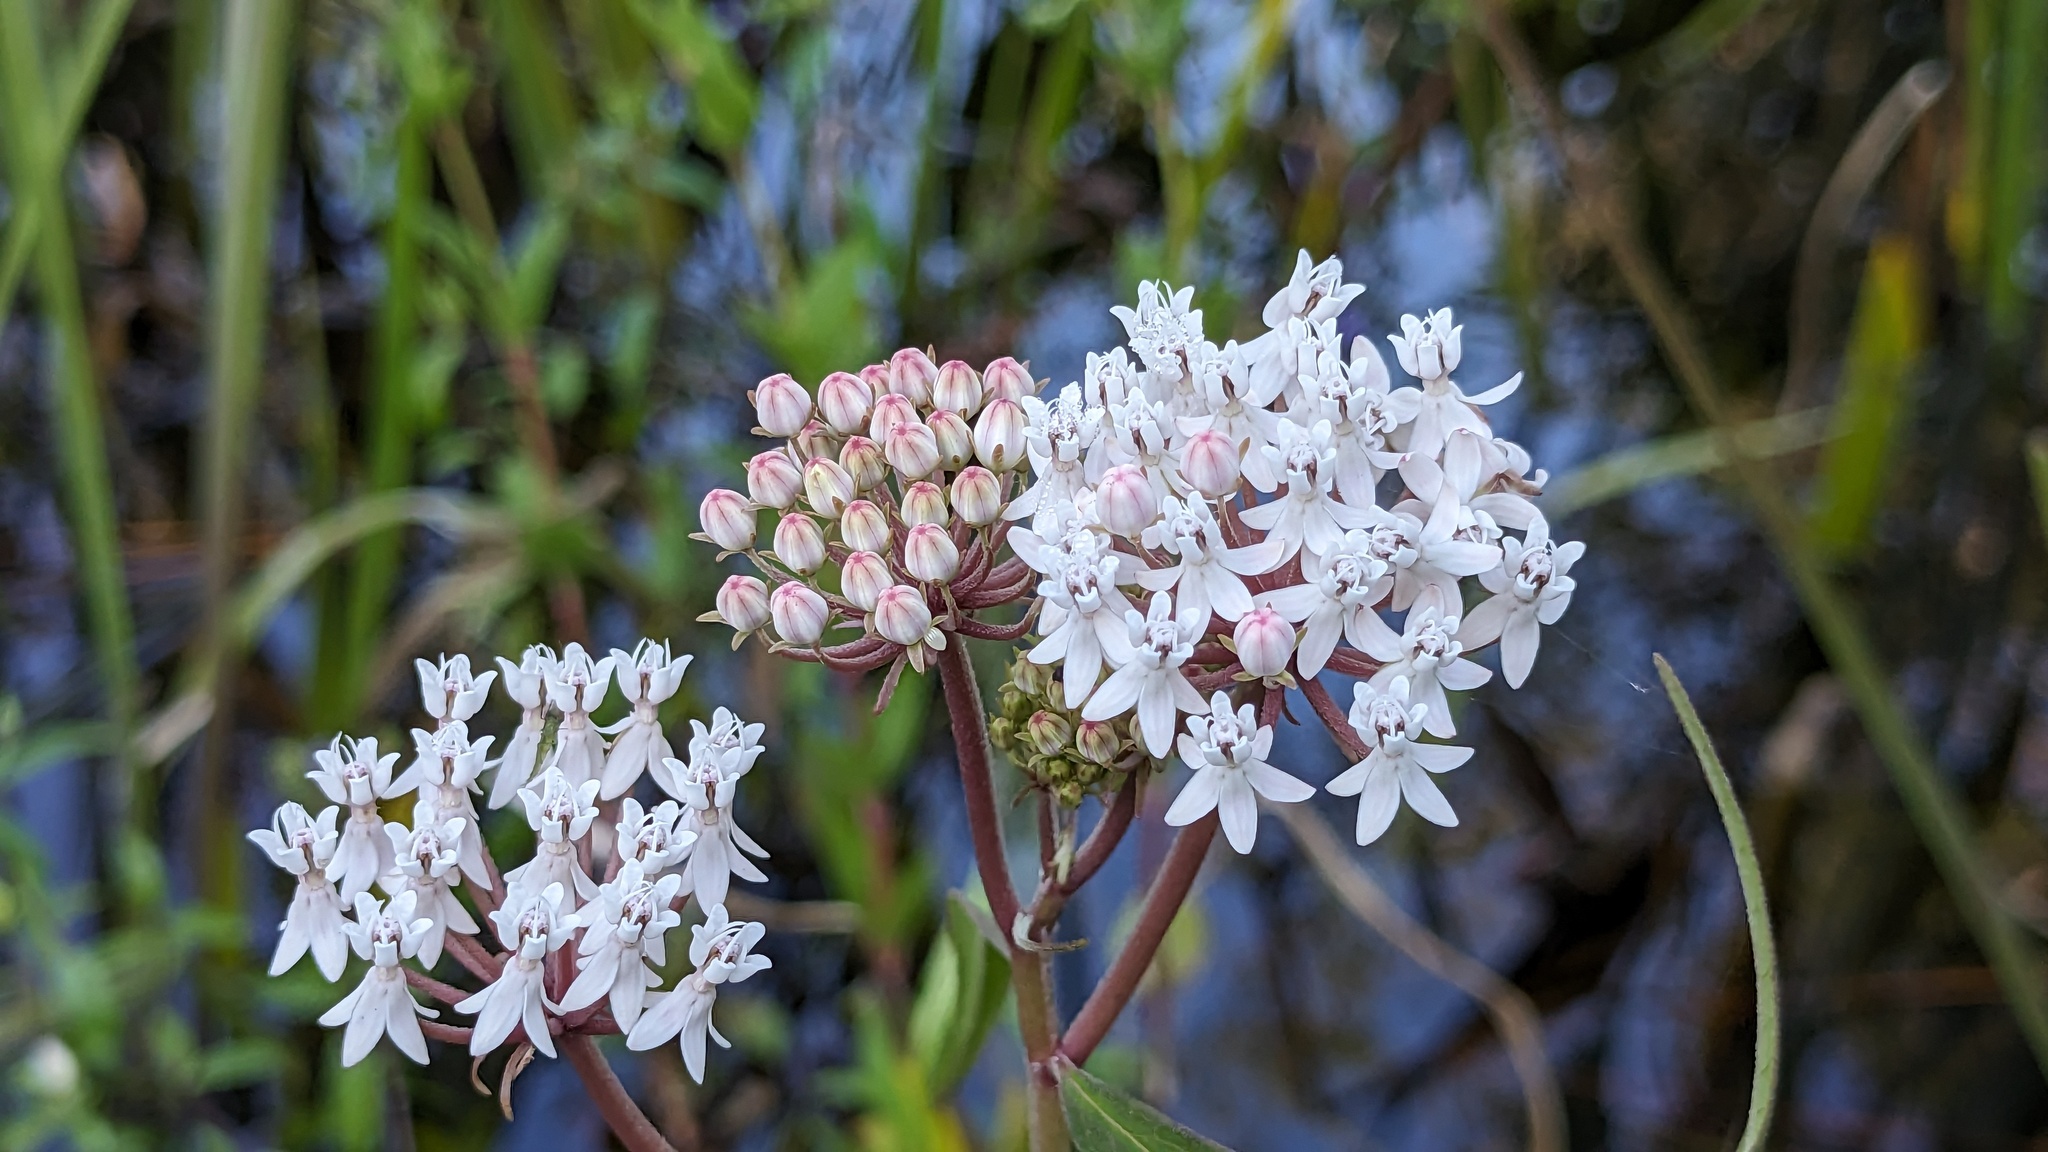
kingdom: Plantae
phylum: Tracheophyta
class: Magnoliopsida
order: Gentianales
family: Apocynaceae
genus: Asclepias
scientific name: Asclepias perennis
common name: Smooth-seed milkweed
